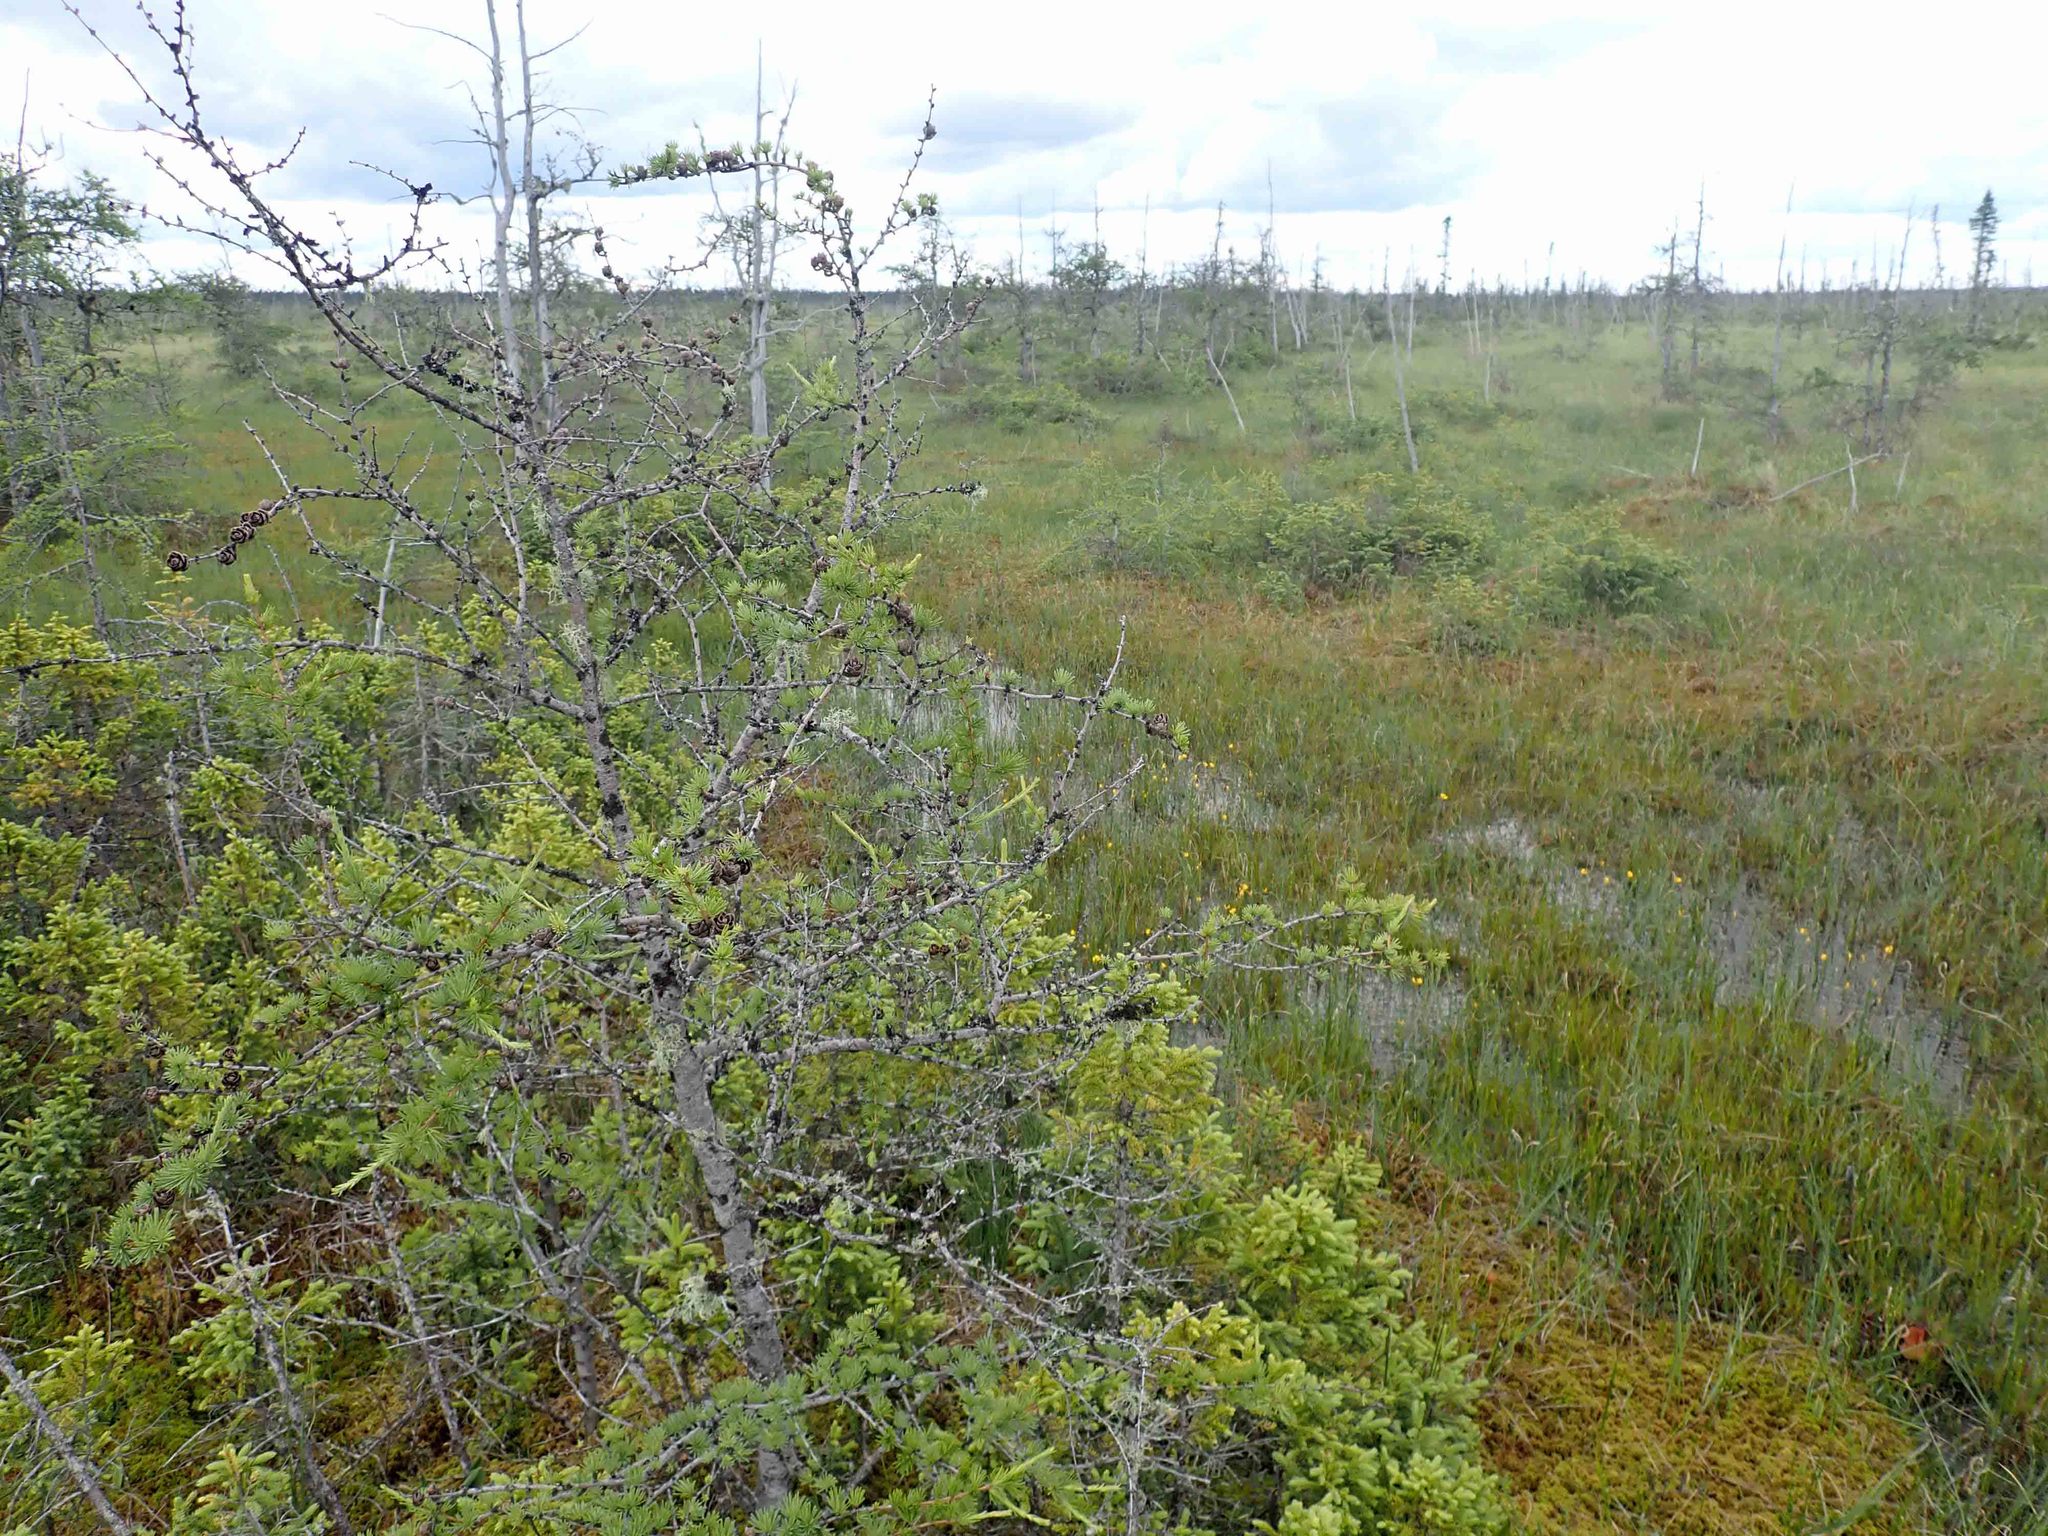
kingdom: Plantae
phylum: Tracheophyta
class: Pinopsida
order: Pinales
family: Pinaceae
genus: Larix
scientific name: Larix laricina
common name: American larch
